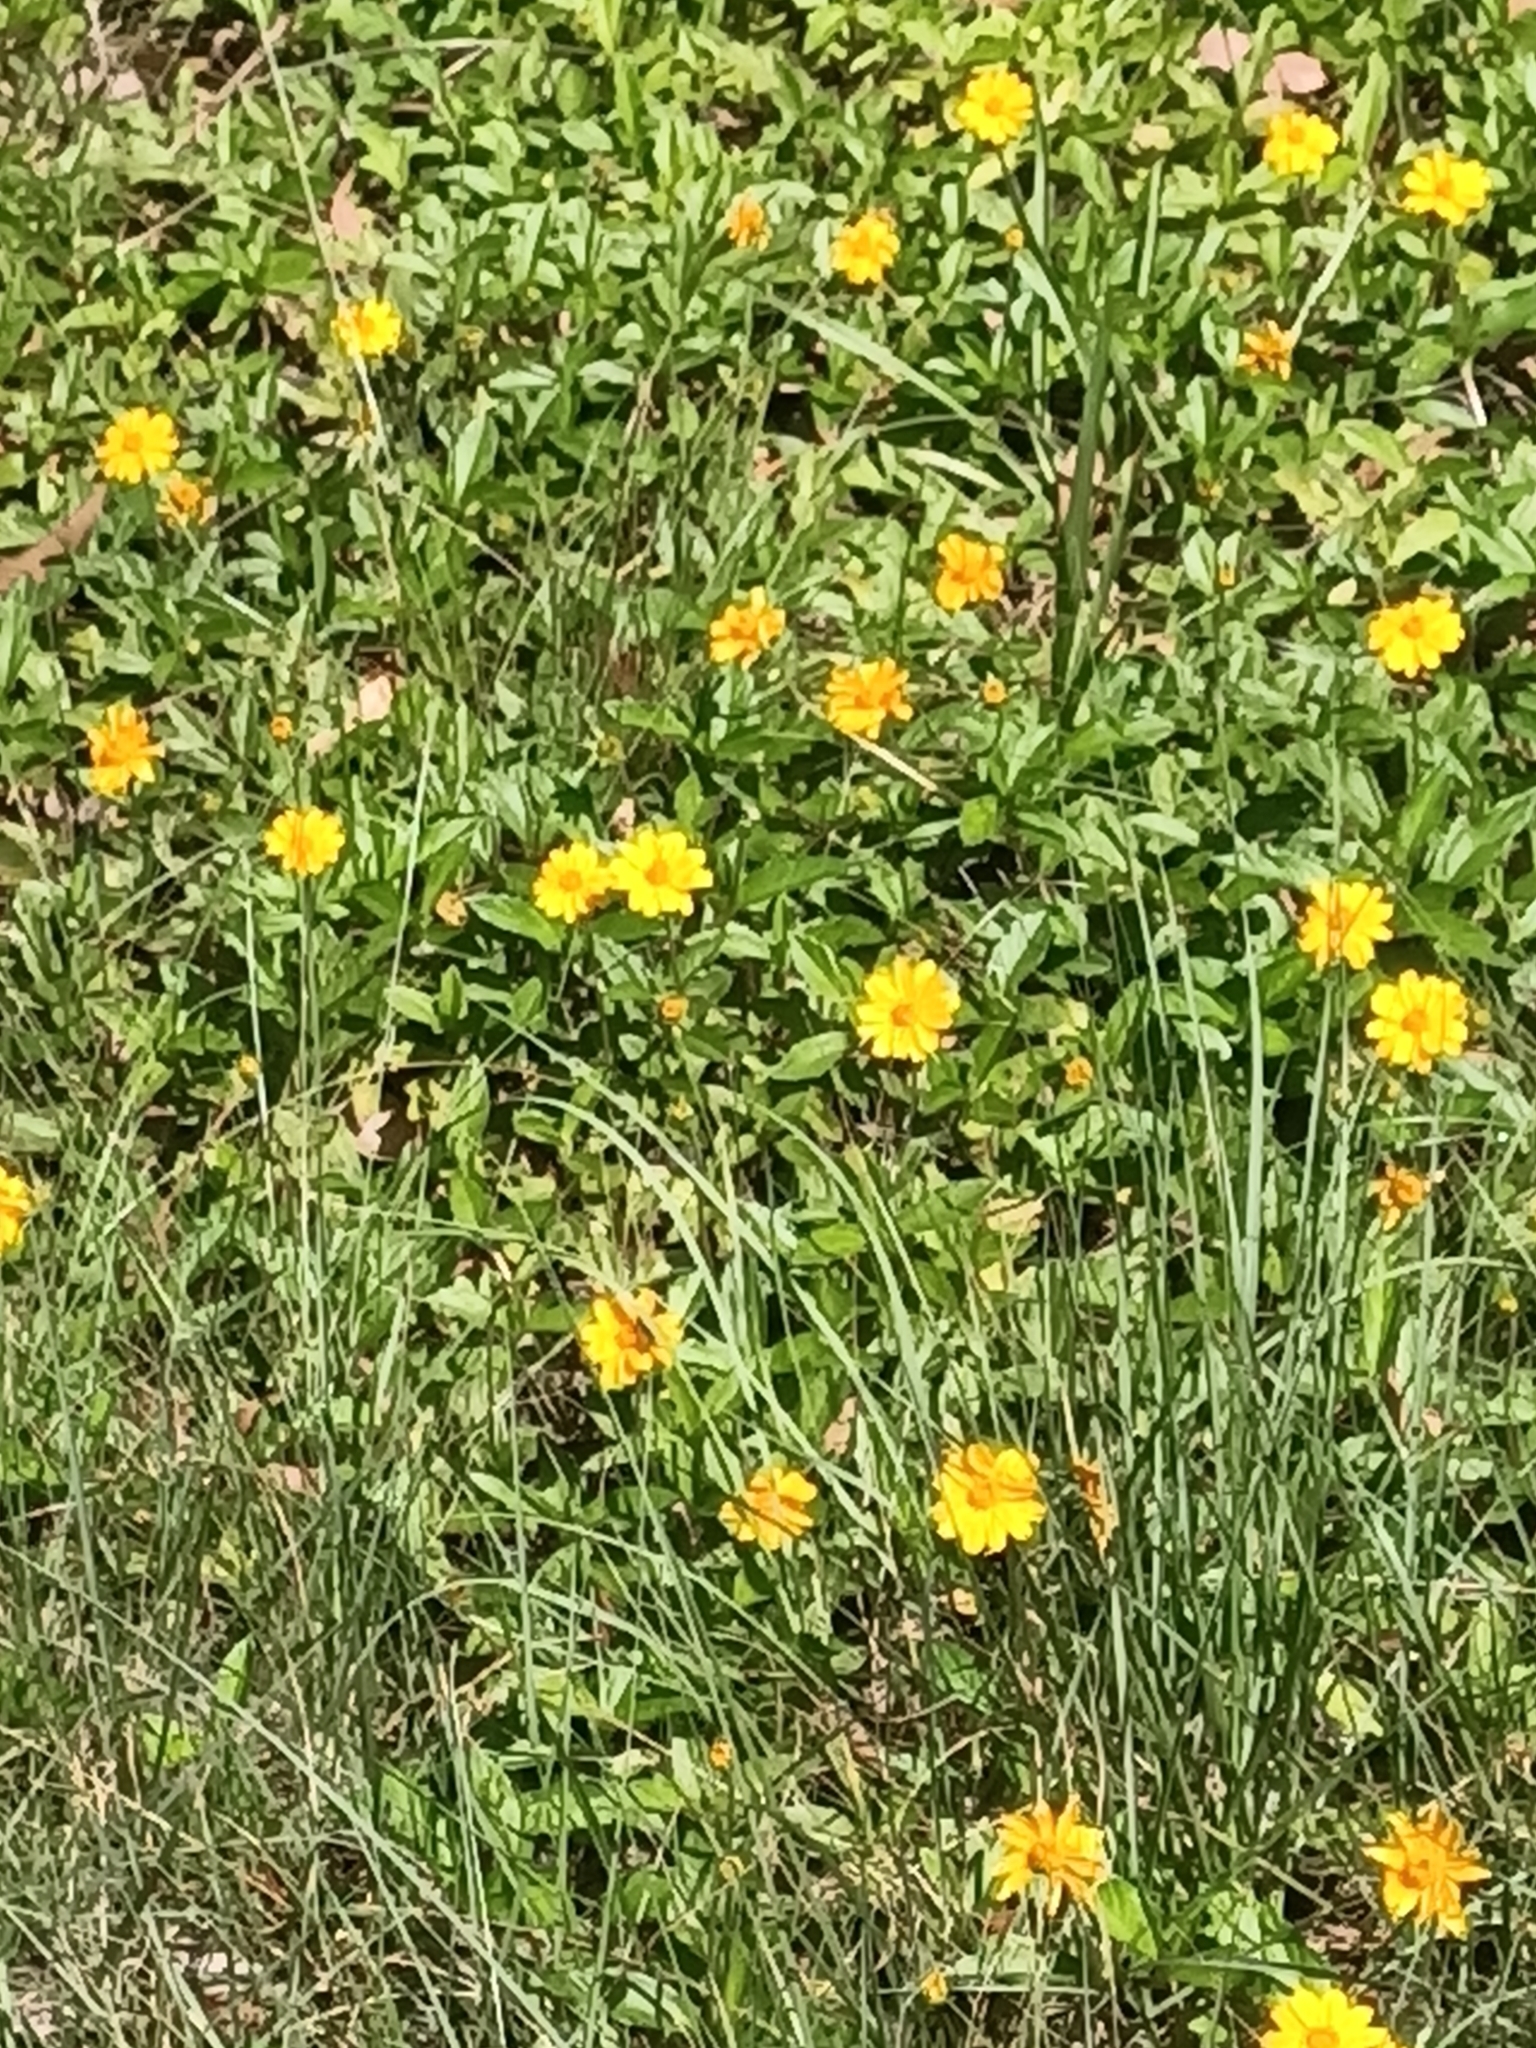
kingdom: Plantae
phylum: Tracheophyta
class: Magnoliopsida
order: Asterales
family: Asteraceae
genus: Sphagneticola
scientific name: Sphagneticola trilobata
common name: Bay biscayne creeping-oxeye
